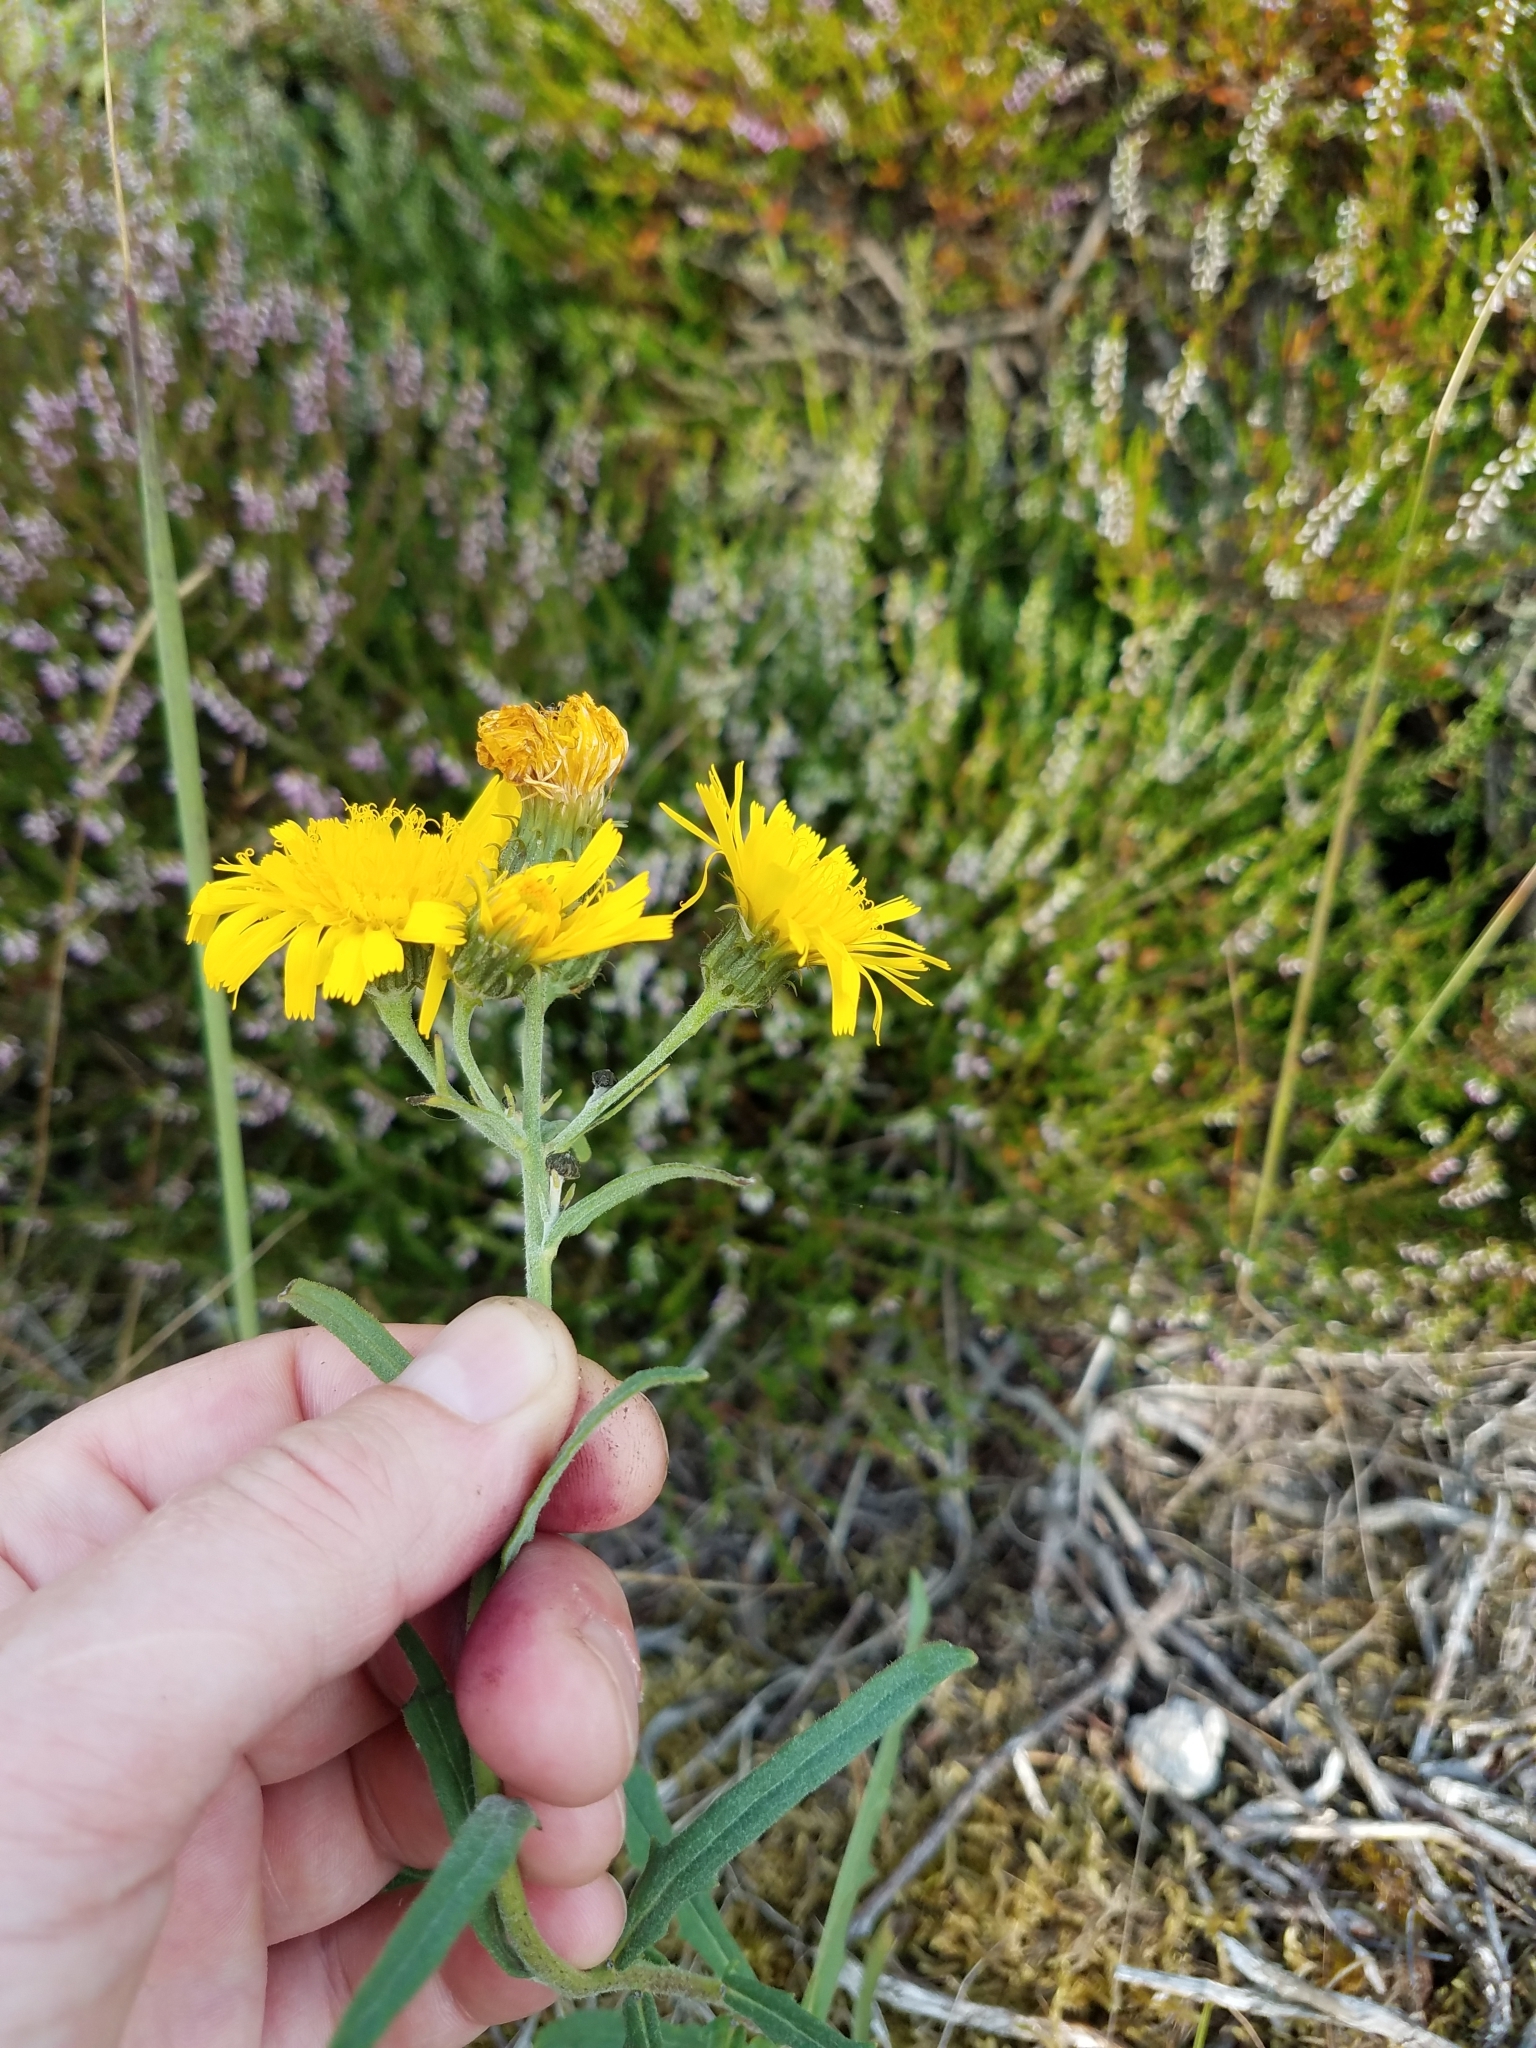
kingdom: Plantae
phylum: Tracheophyta
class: Magnoliopsida
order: Asterales
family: Asteraceae
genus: Hieracium
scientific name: Hieracium umbellatum
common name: Northern hawkweed
